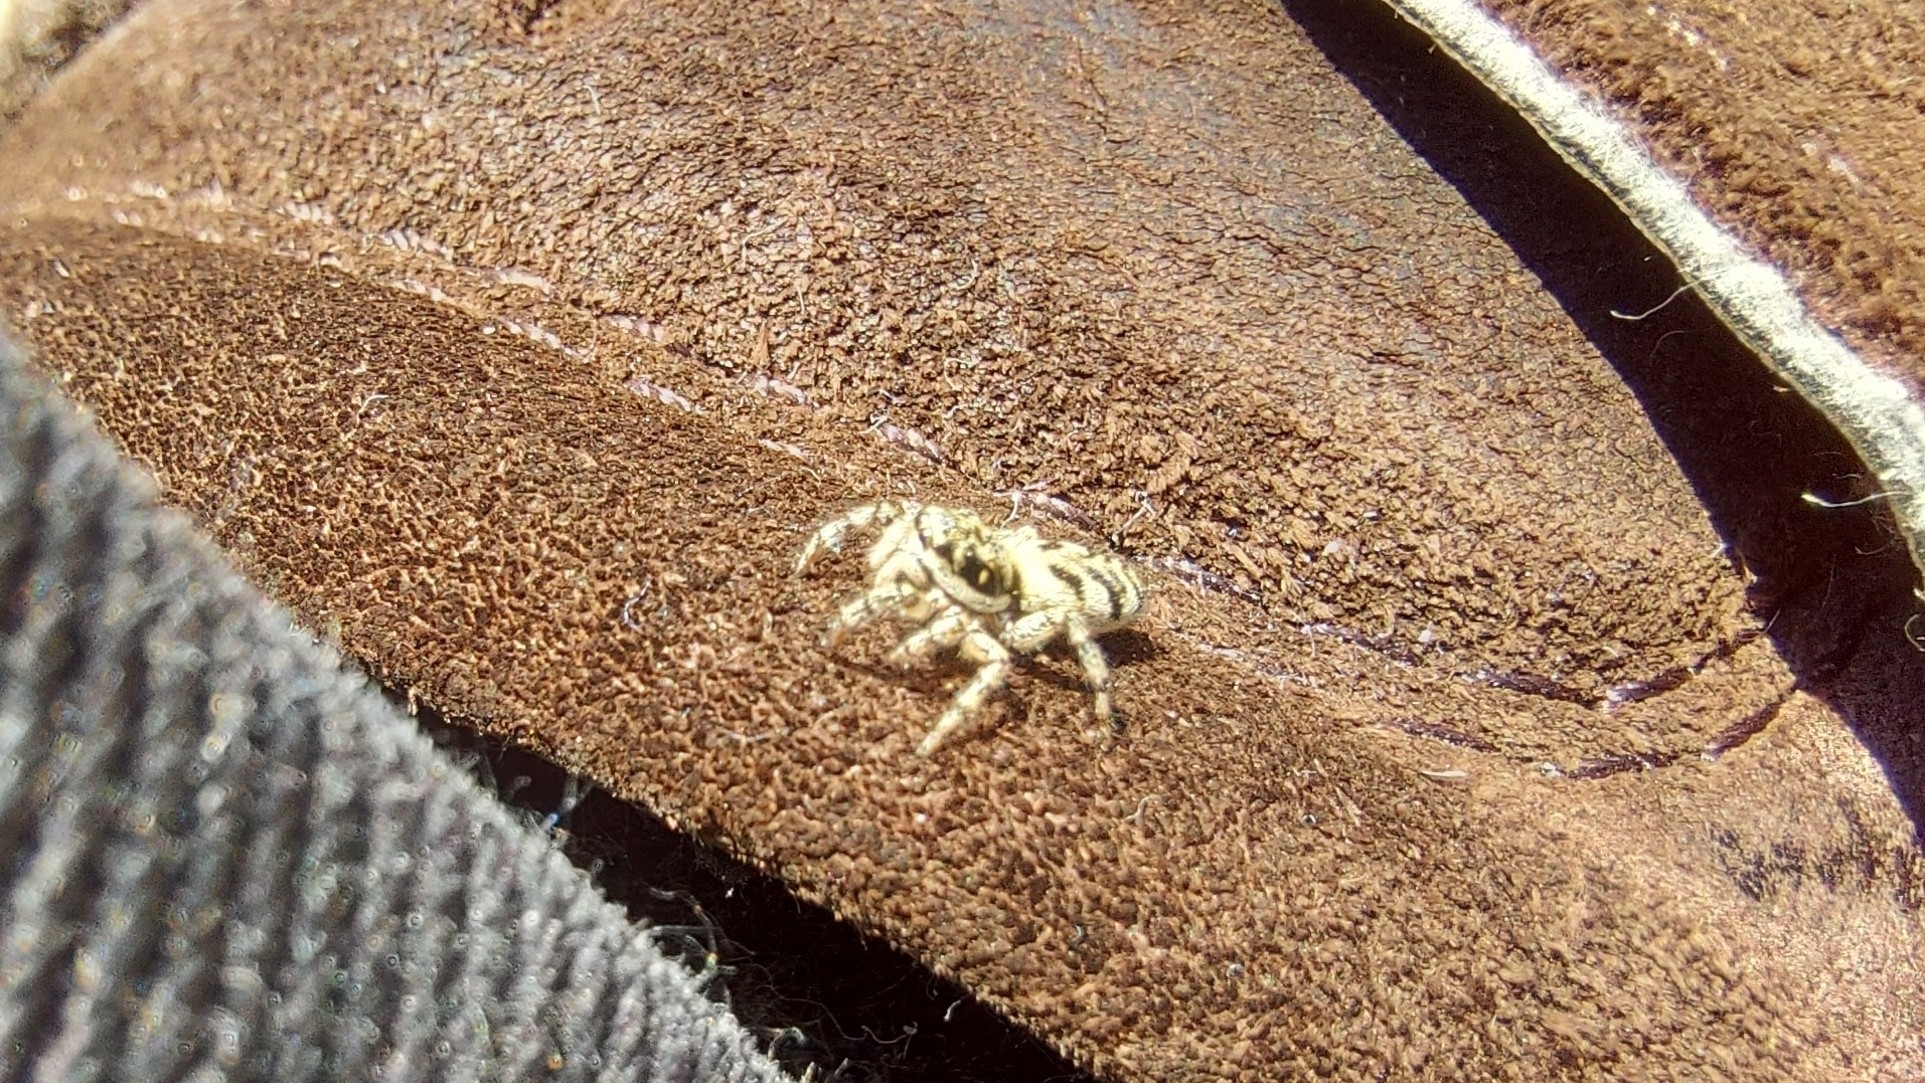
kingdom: Animalia
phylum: Arthropoda
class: Arachnida
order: Araneae
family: Salticidae
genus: Salticus
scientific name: Salticus cingulatus
